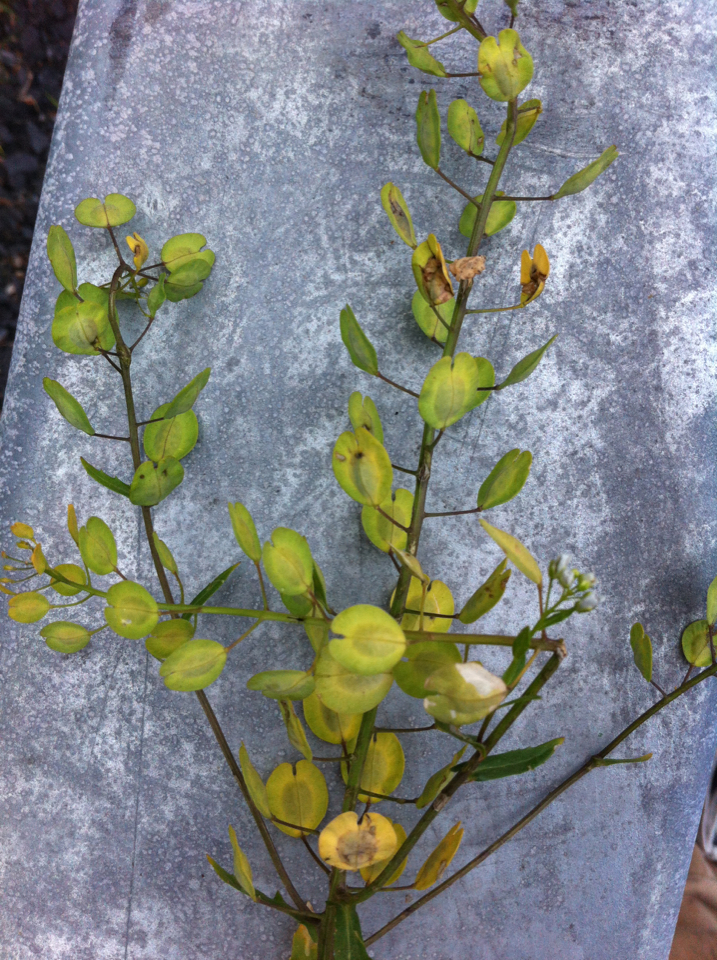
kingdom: Plantae
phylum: Tracheophyta
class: Magnoliopsida
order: Brassicales
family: Brassicaceae
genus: Thlaspi
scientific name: Thlaspi arvense
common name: Field pennycress
